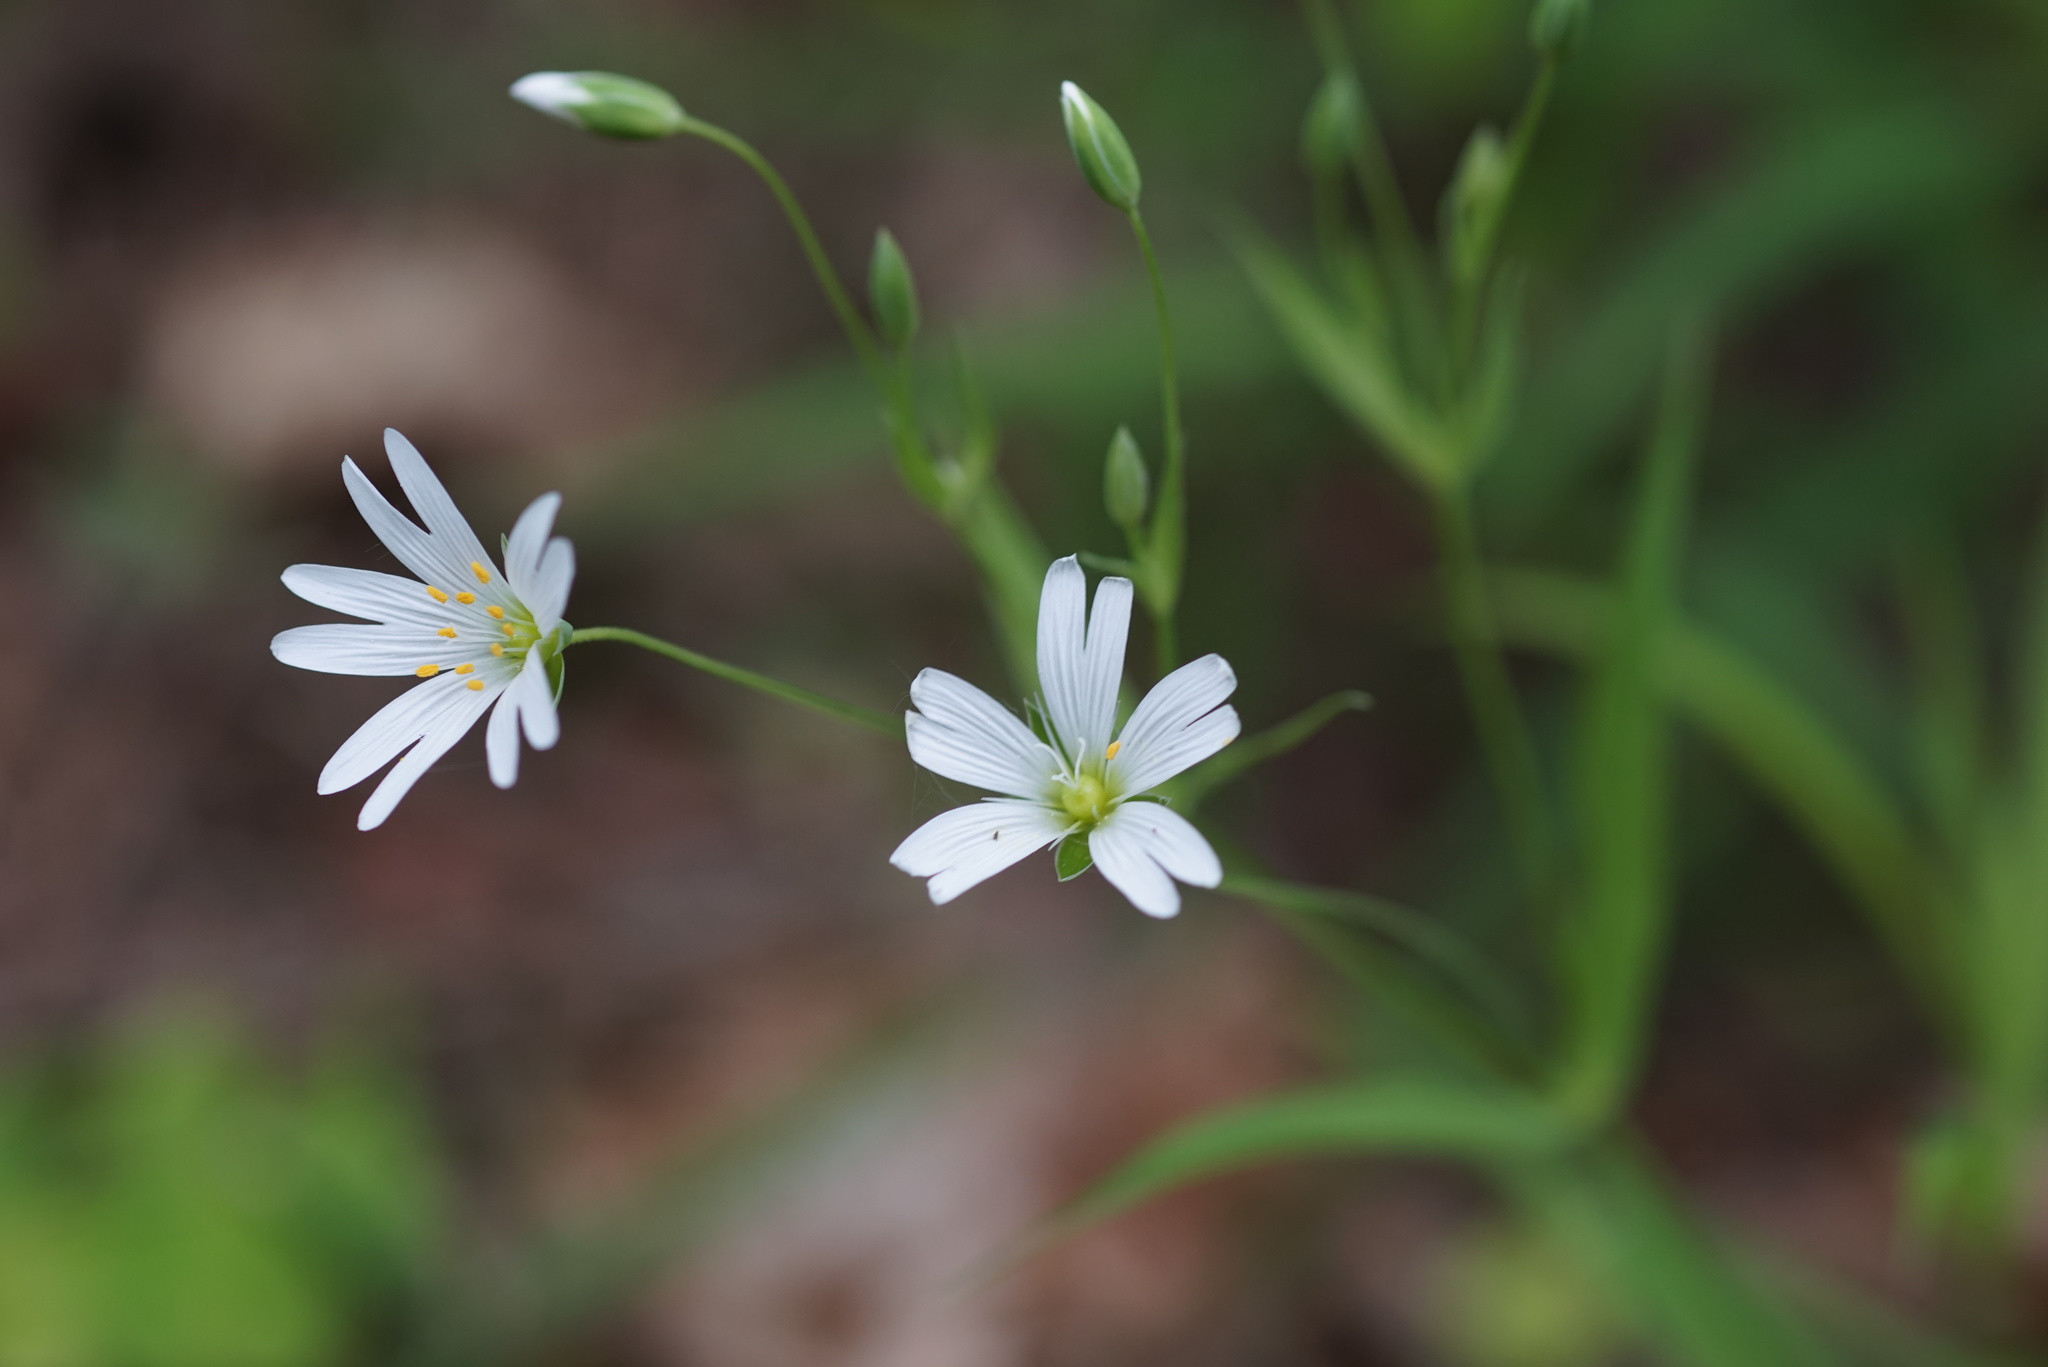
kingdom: Plantae
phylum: Tracheophyta
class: Magnoliopsida
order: Caryophyllales
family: Caryophyllaceae
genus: Rabelera
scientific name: Rabelera holostea
